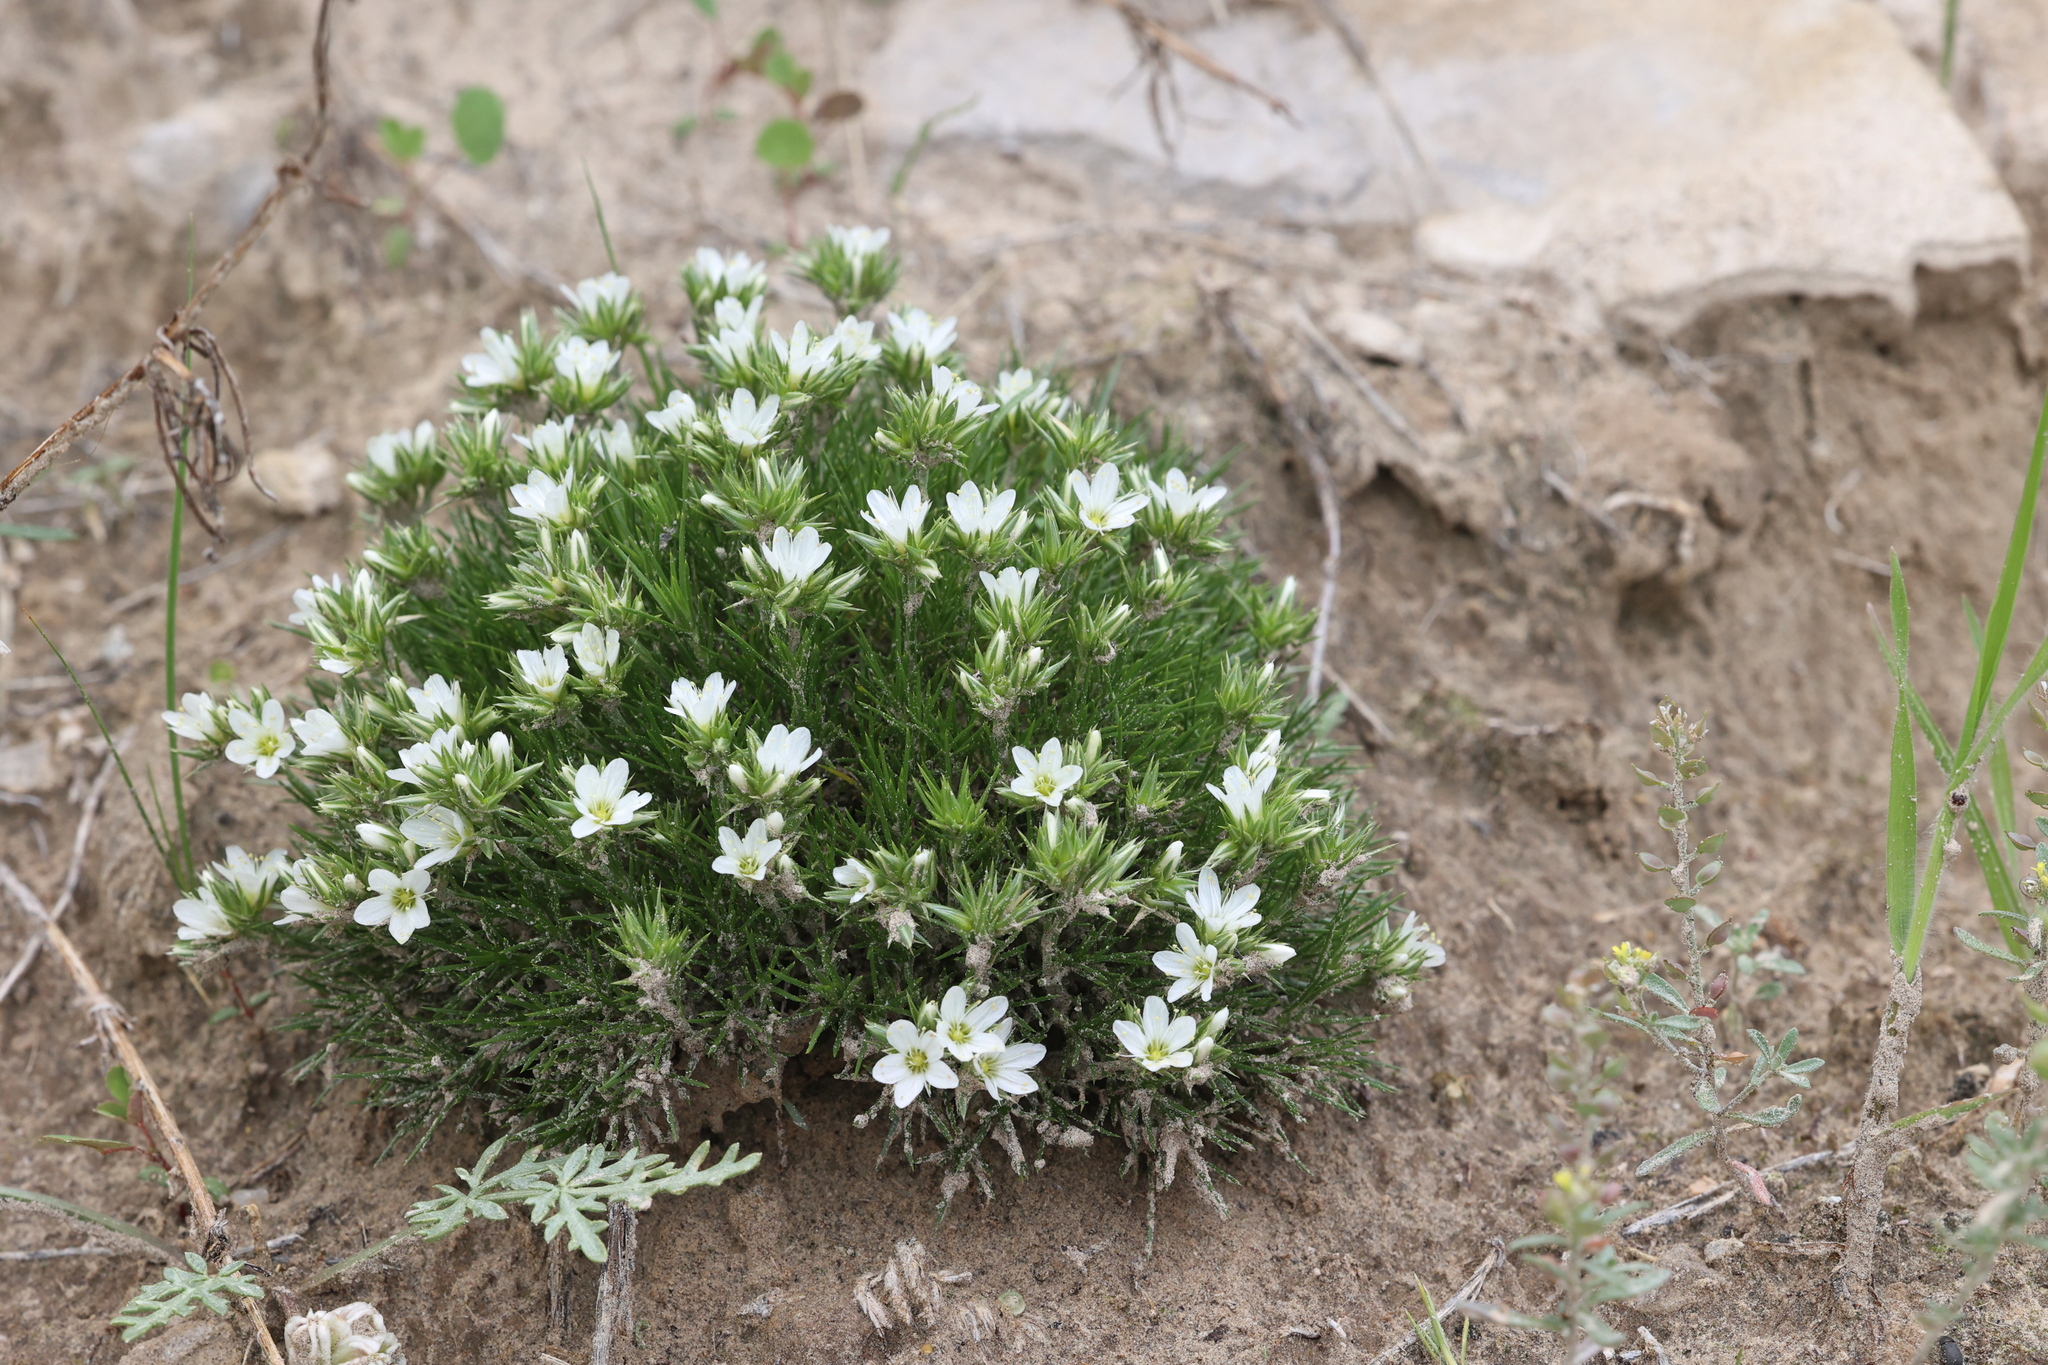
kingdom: Plantae
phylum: Tracheophyta
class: Magnoliopsida
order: Caryophyllales
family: Caryophyllaceae
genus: Eremogone
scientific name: Eremogone hookeri
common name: Hooker's sandwort
